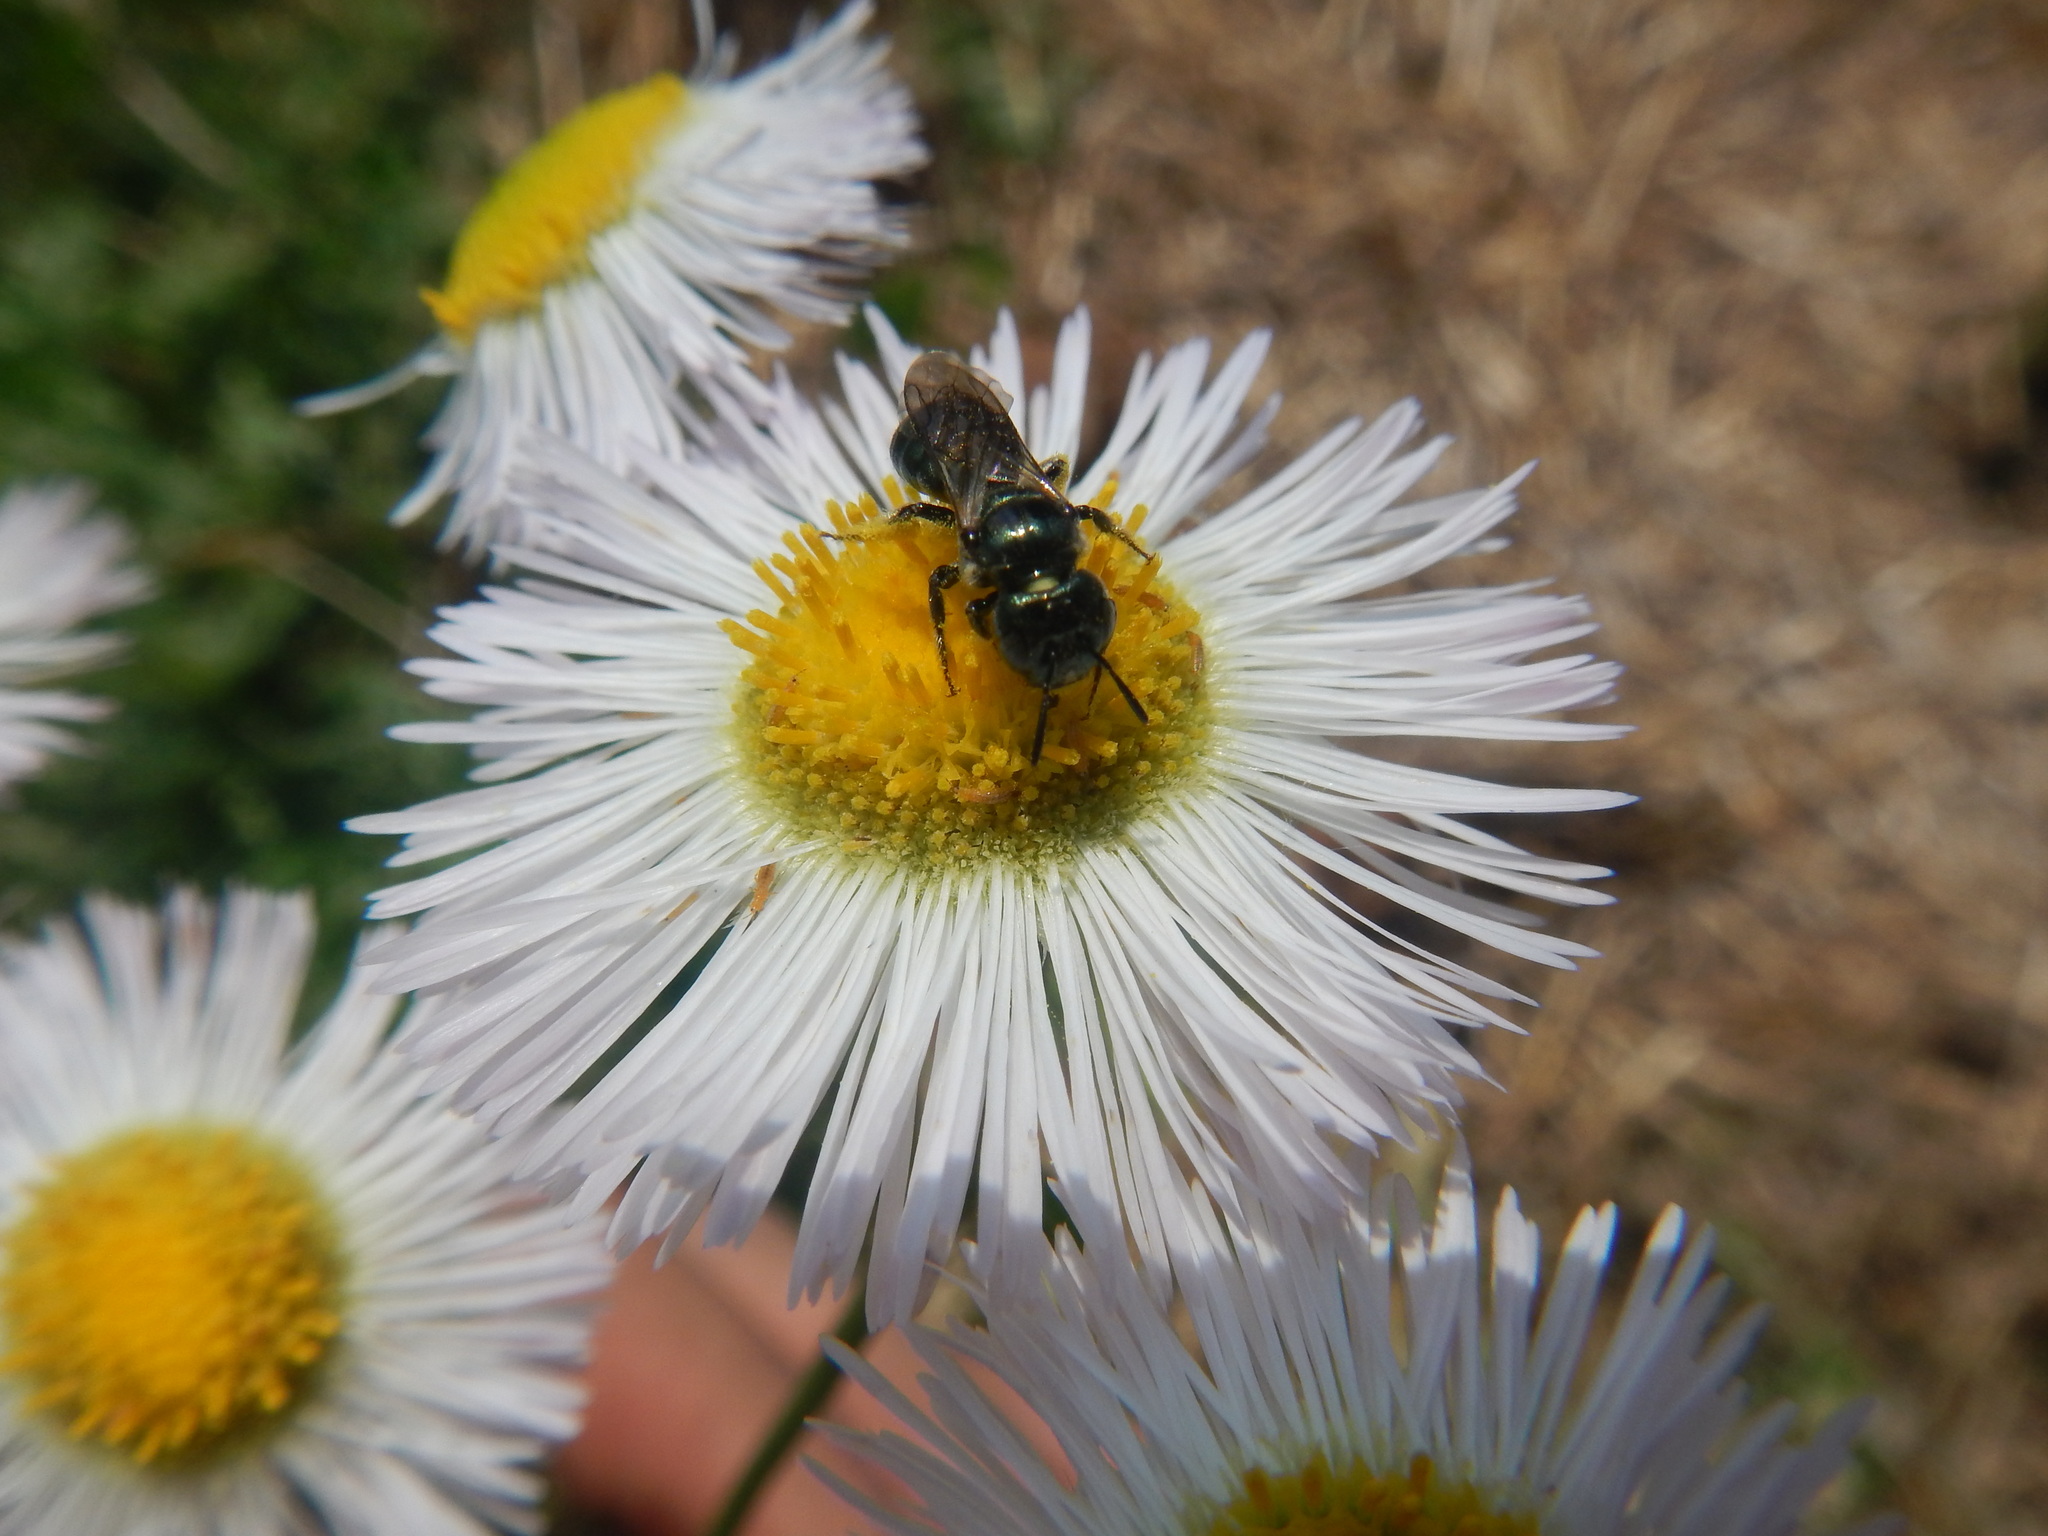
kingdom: Animalia
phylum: Arthropoda
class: Insecta
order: Hymenoptera
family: Apidae
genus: Zadontomerus
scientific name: Zadontomerus
